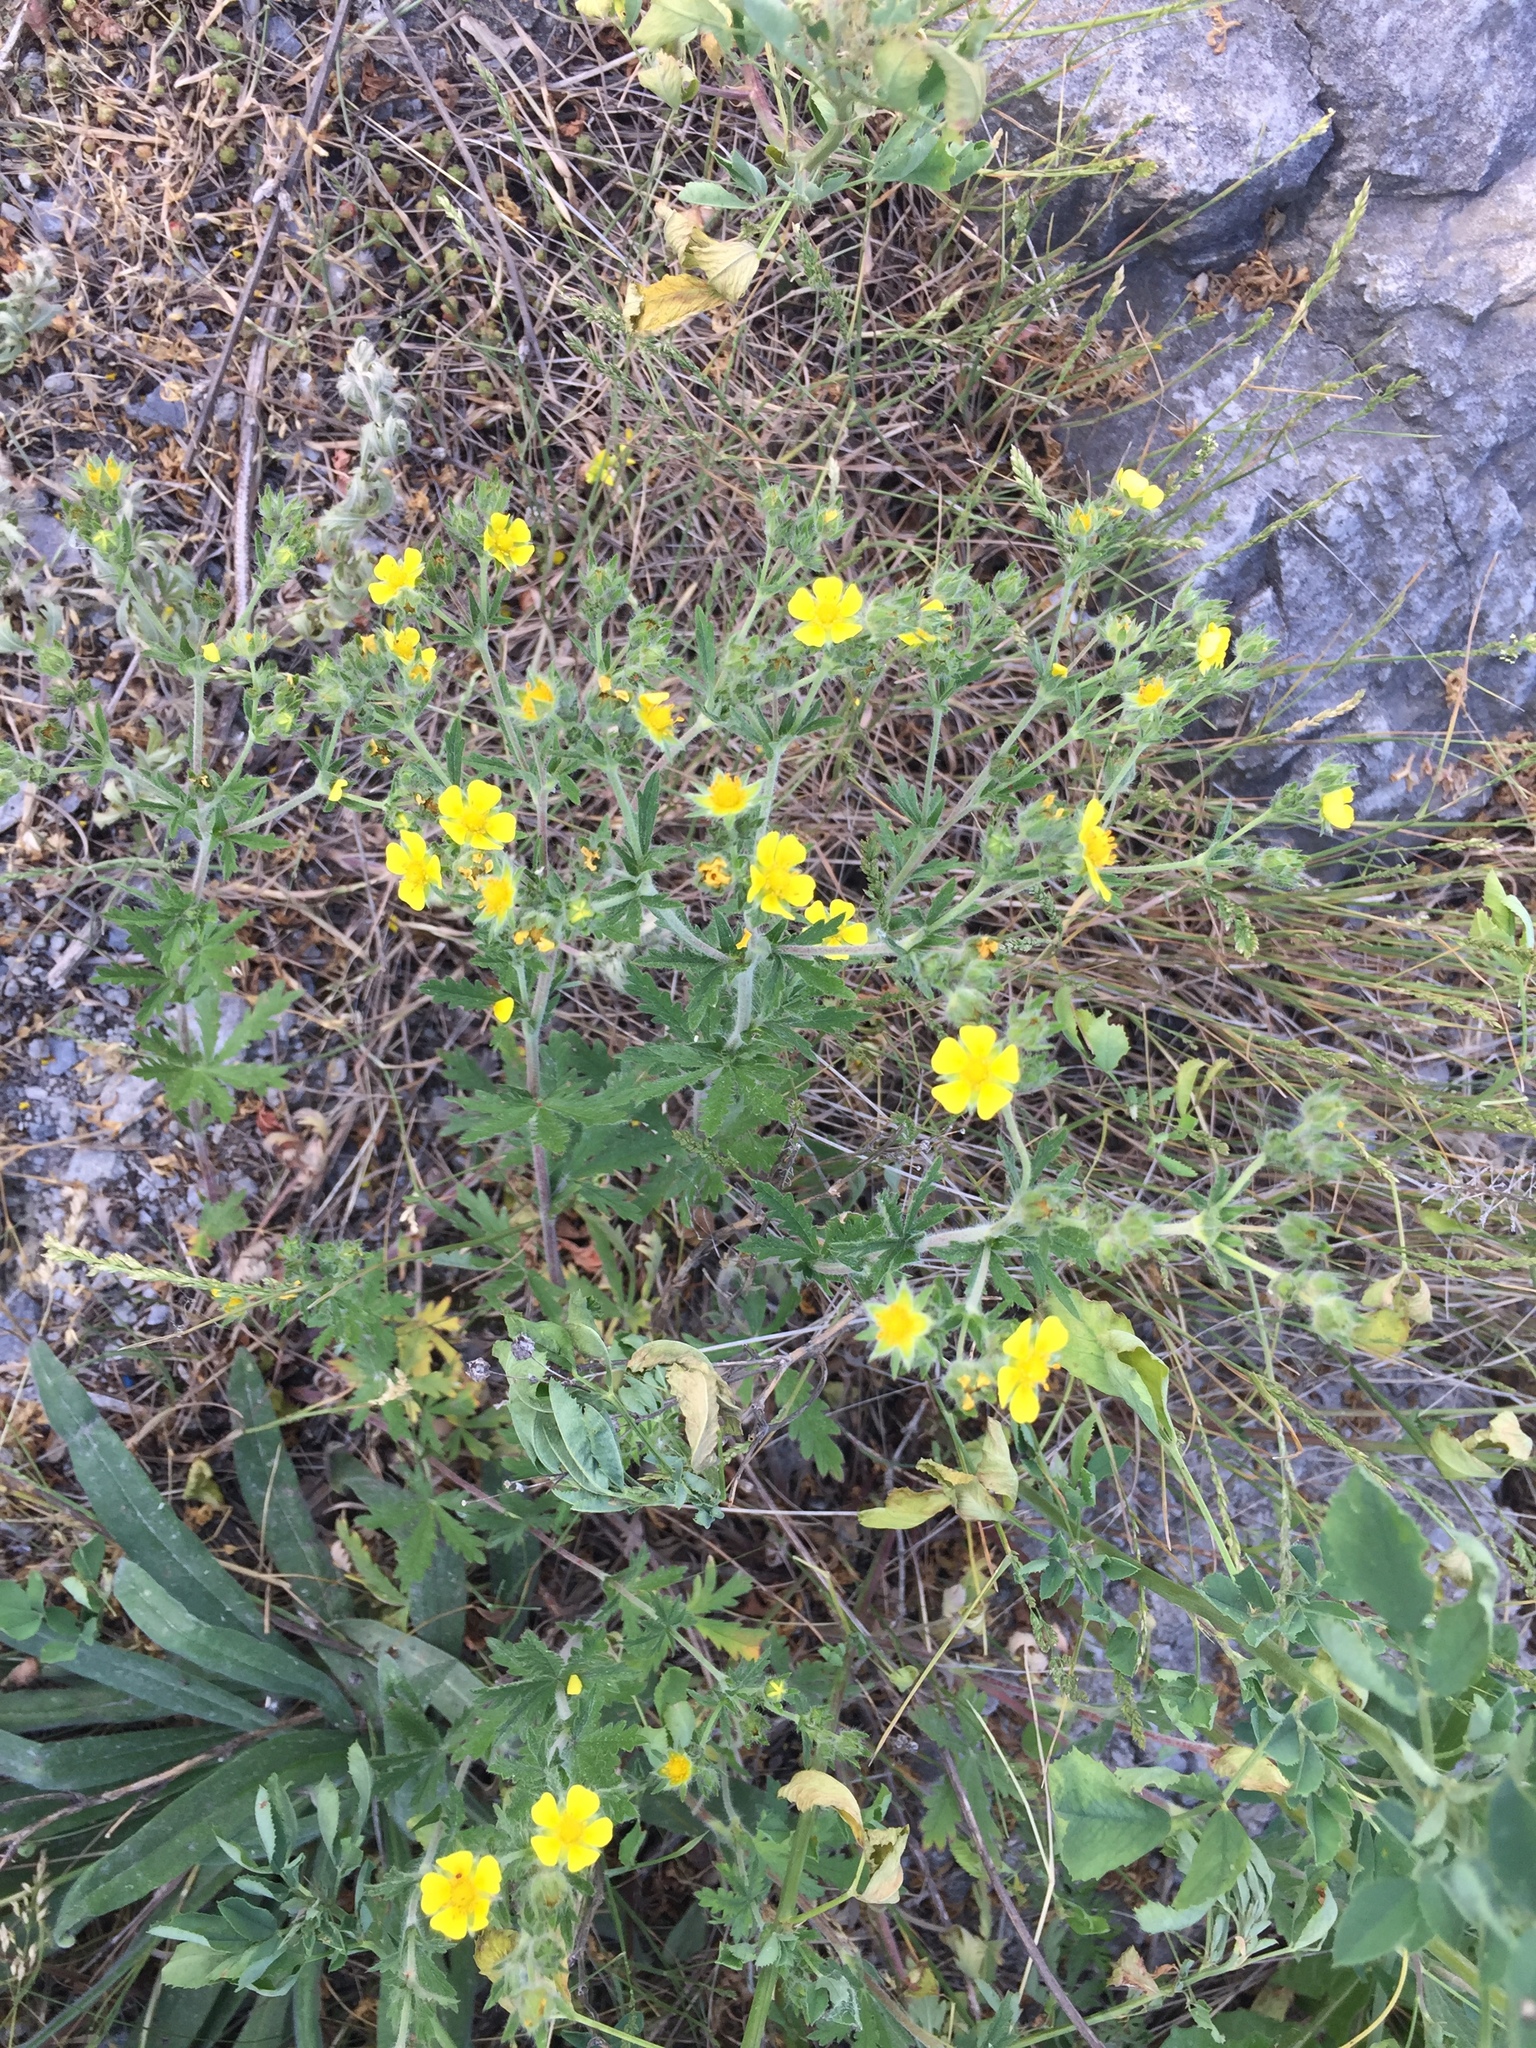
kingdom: Plantae
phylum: Tracheophyta
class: Magnoliopsida
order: Rosales
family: Rosaceae
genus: Potentilla
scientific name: Potentilla argentea
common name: Hoary cinquefoil
